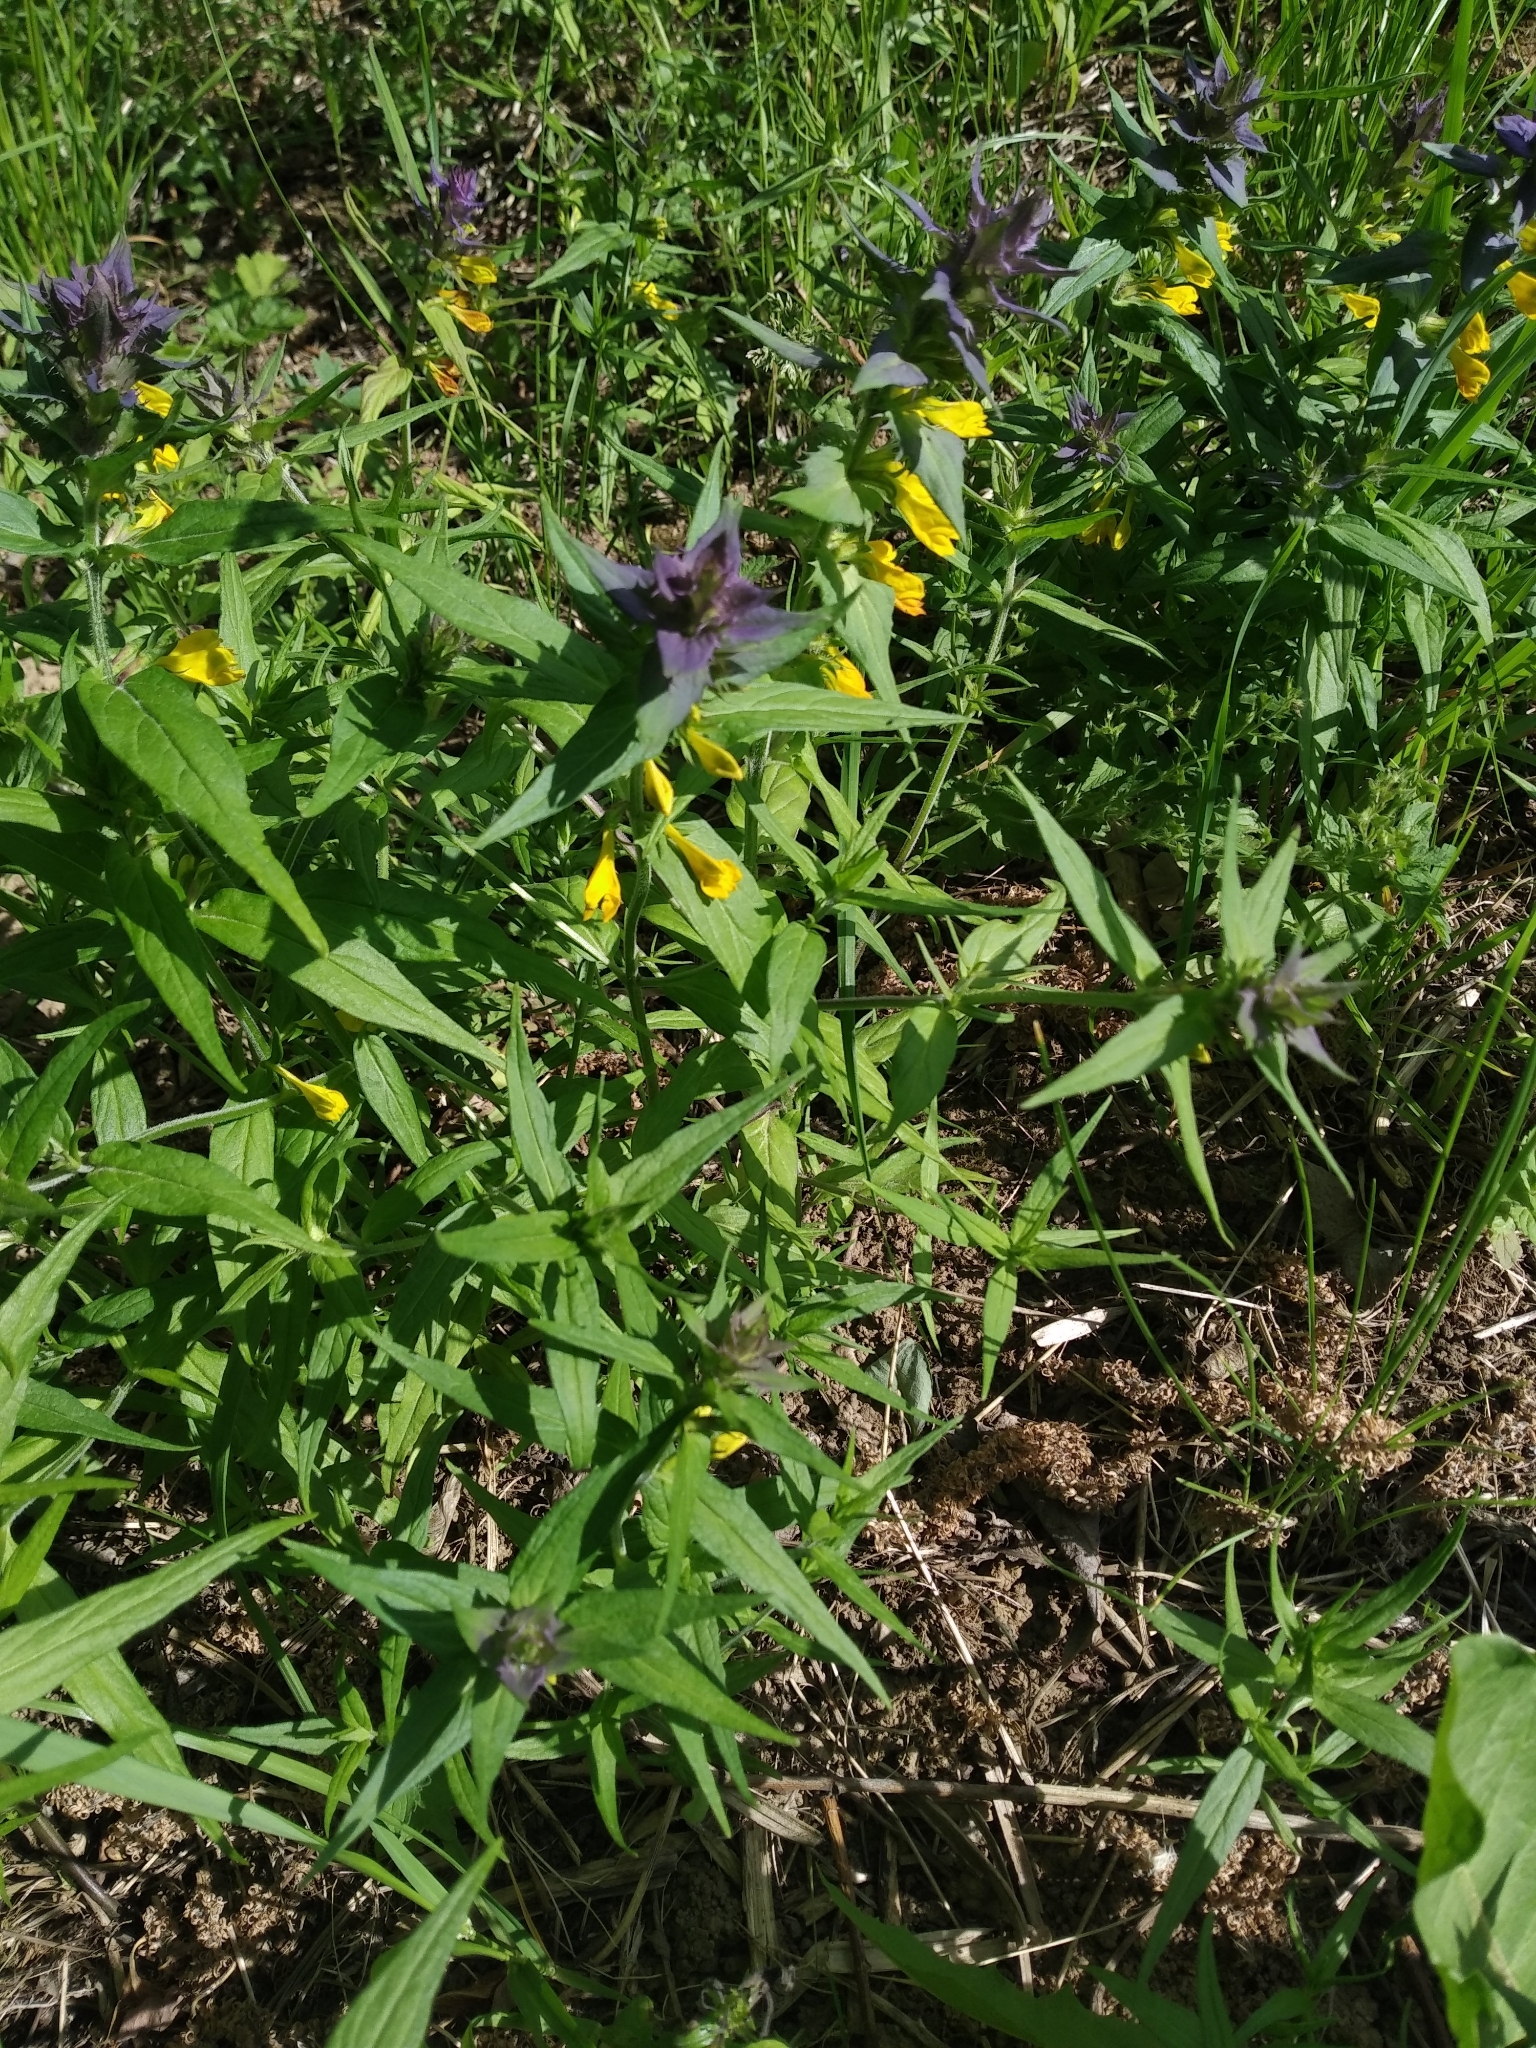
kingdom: Plantae
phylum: Tracheophyta
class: Magnoliopsida
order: Lamiales
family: Orobanchaceae
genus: Melampyrum
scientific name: Melampyrum nemorosum
